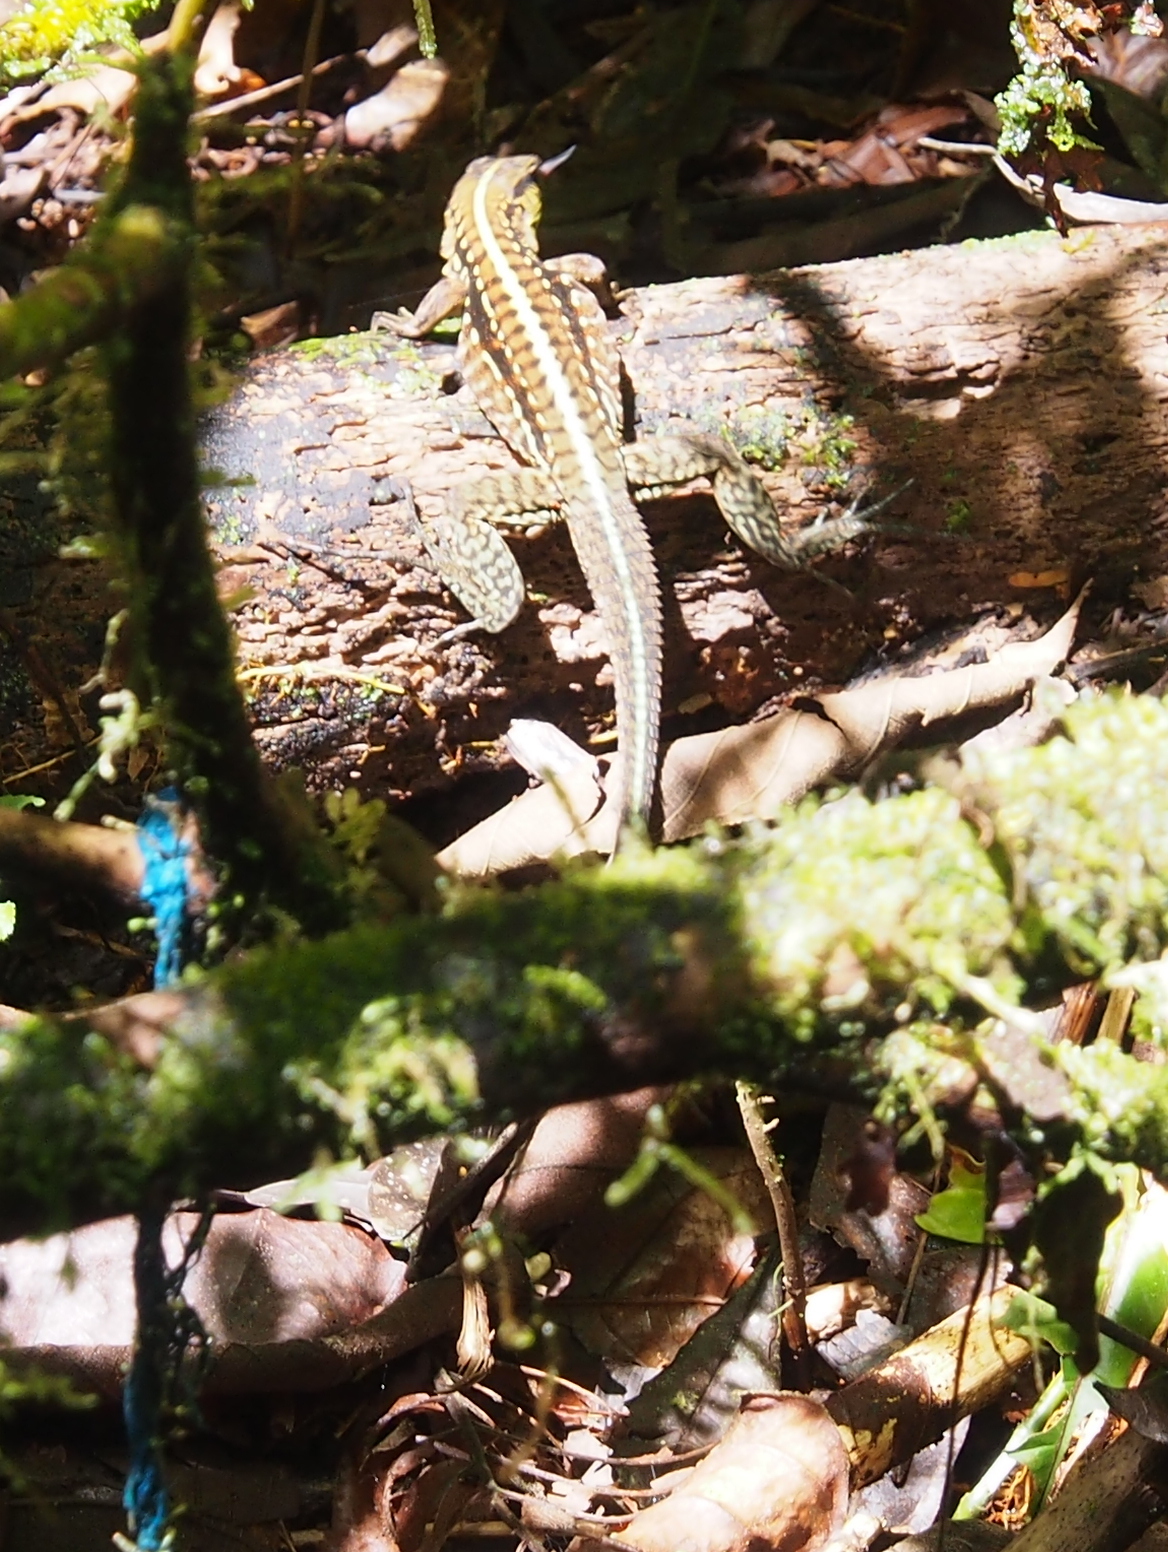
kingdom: Animalia
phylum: Chordata
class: Squamata
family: Teiidae
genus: Holcosus
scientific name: Holcosus festivus
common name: Middle american ameiva
